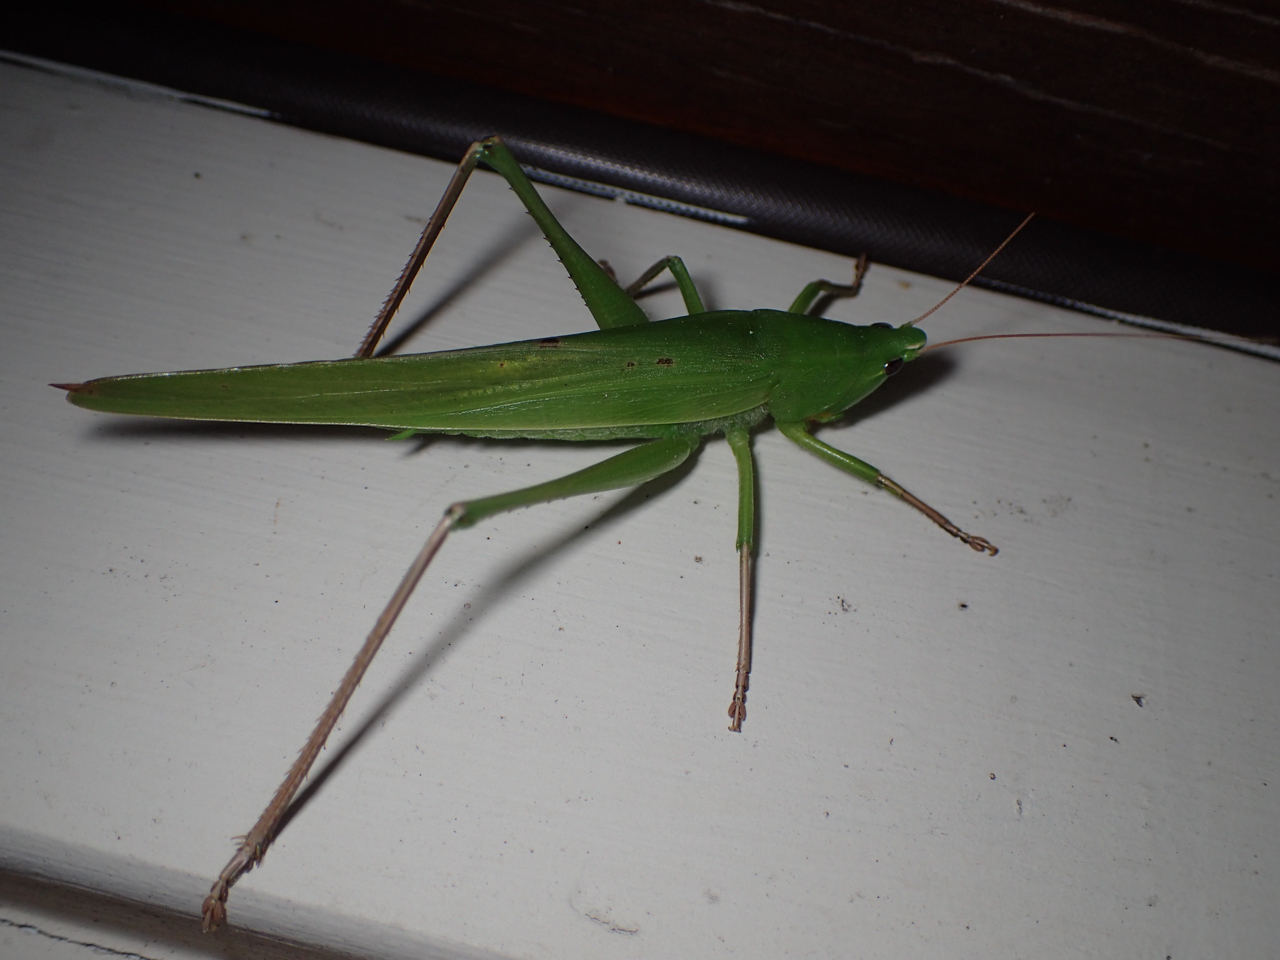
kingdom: Animalia
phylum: Arthropoda
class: Insecta
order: Orthoptera
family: Tettigoniidae
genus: Neoconocephalus
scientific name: Neoconocephalus triops
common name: Broad-tipped conehead
